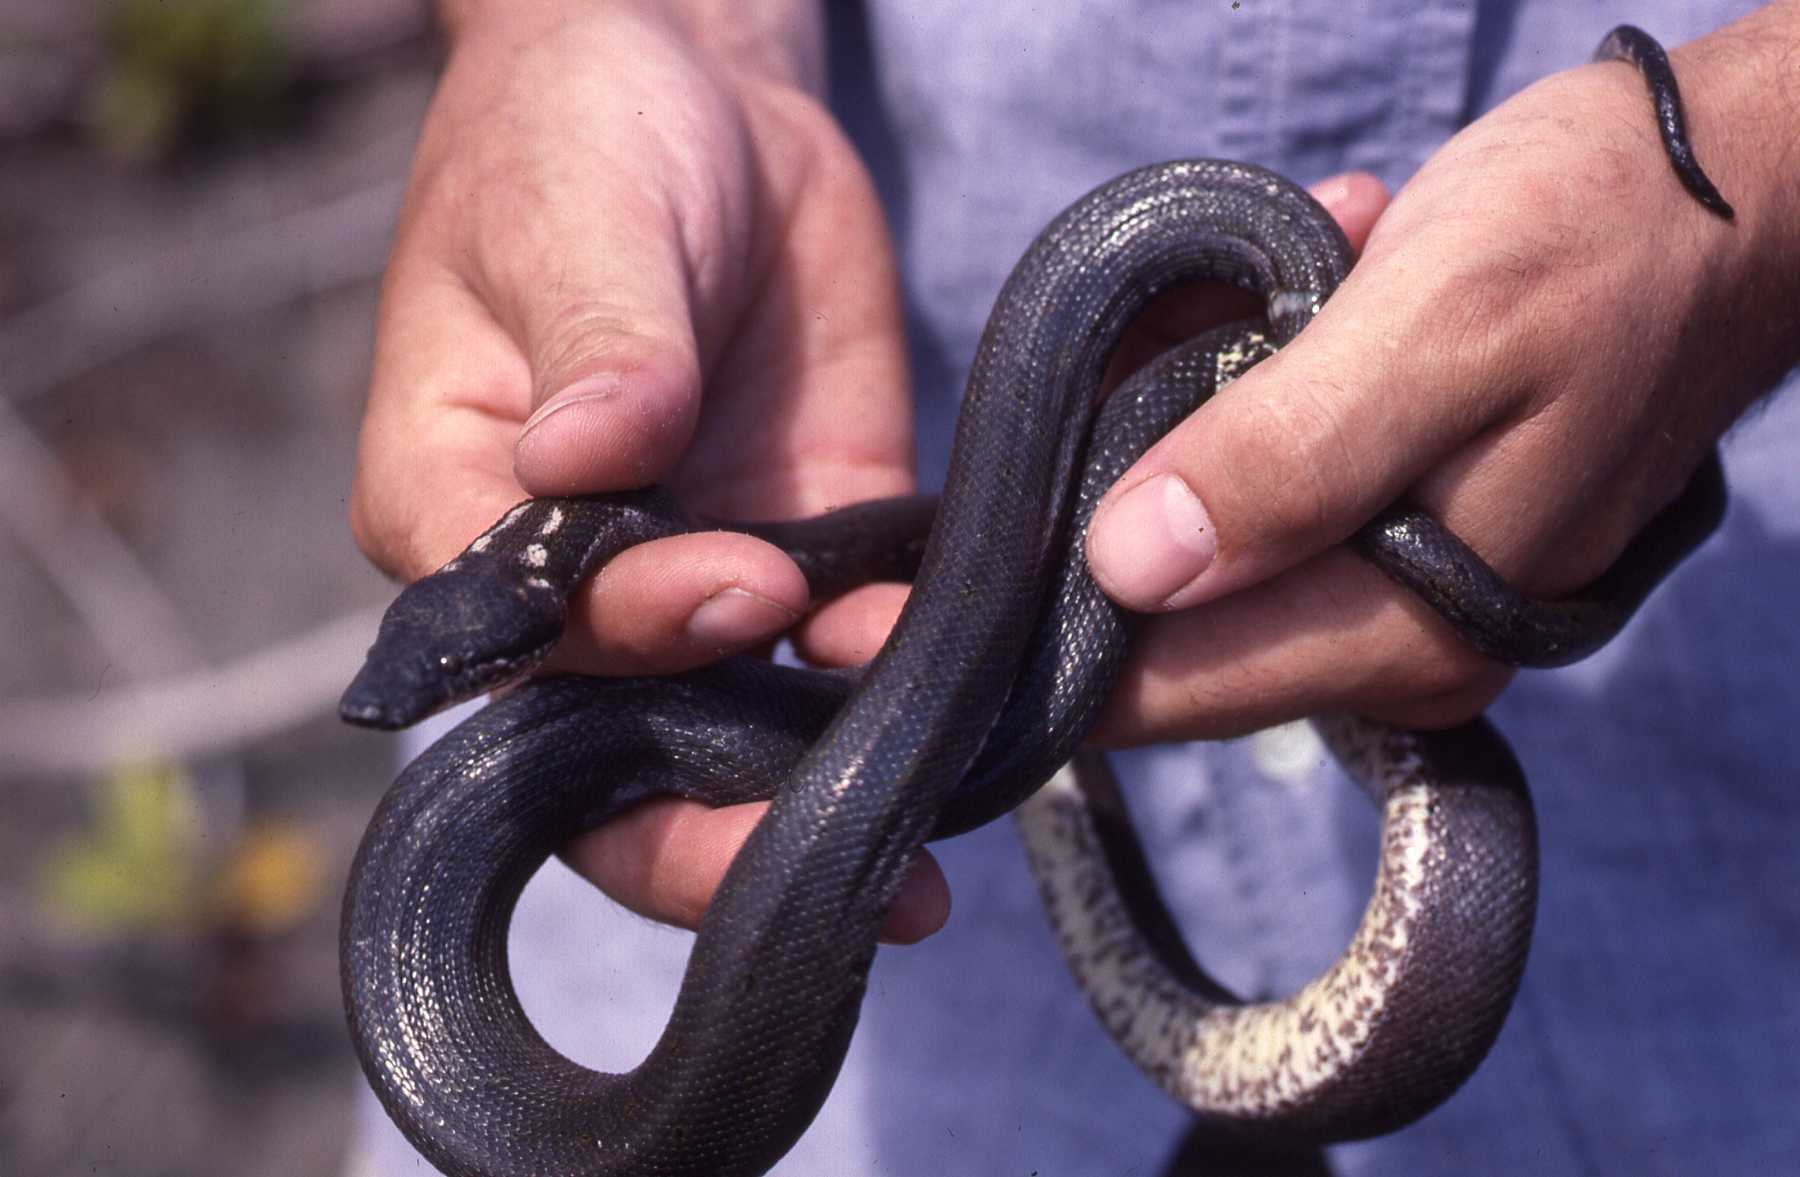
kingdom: Animalia
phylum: Chordata
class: Squamata
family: Bolyeriidae
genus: Casarea
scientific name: Casarea dussumieri
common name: Keel-scaled boa
